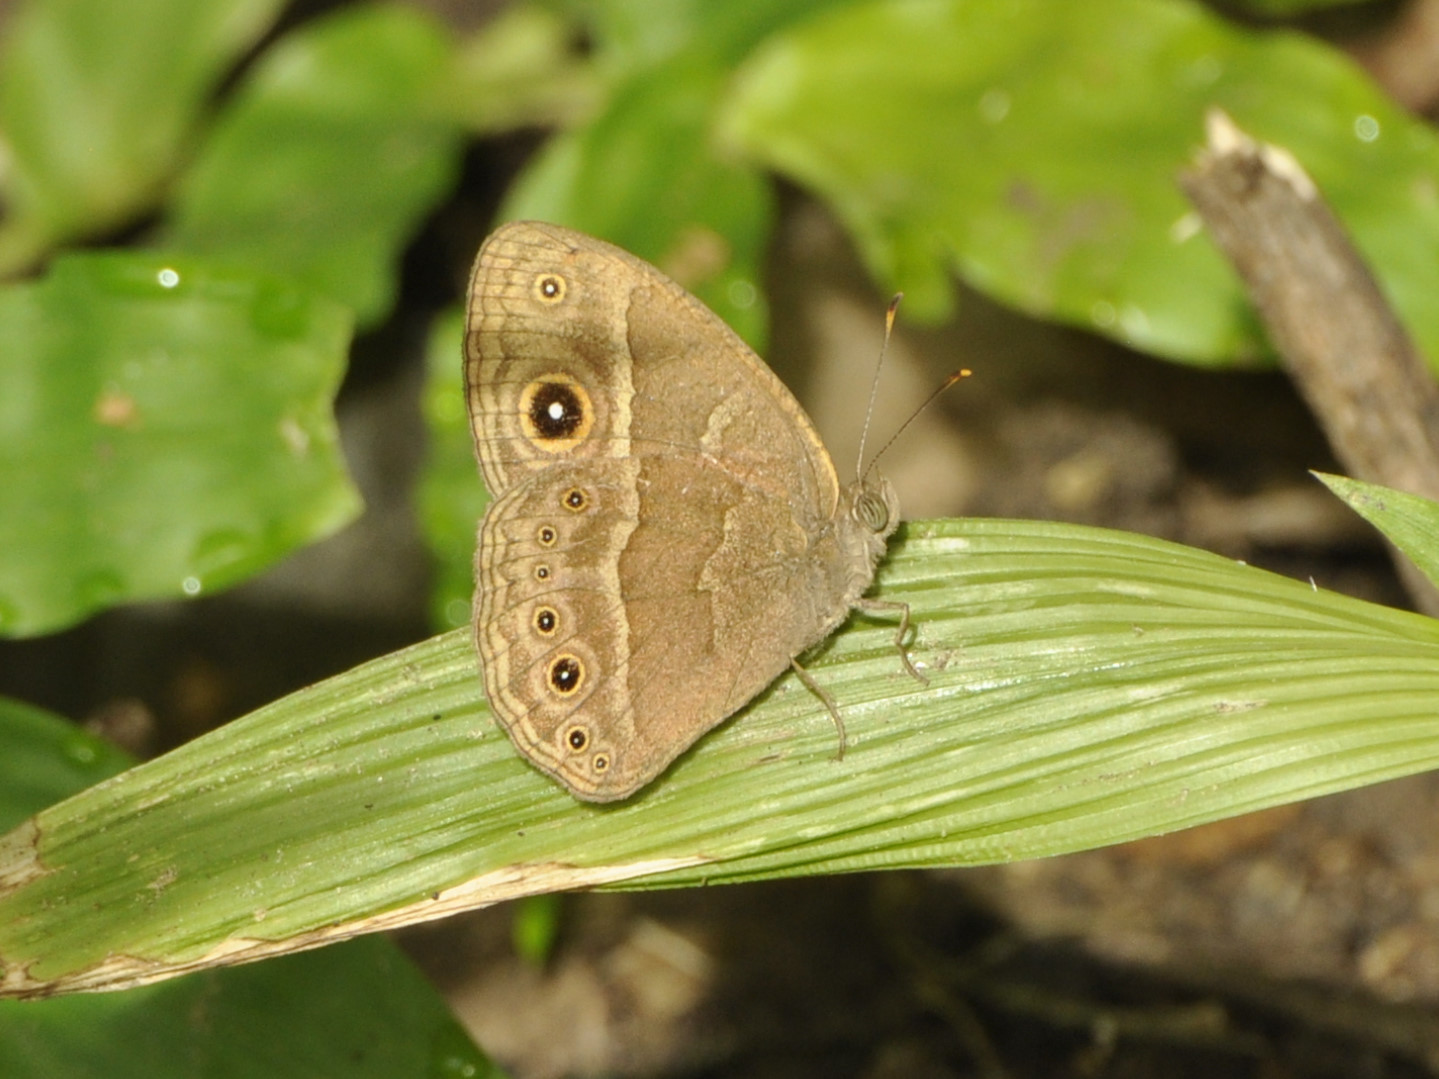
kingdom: Animalia
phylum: Arthropoda
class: Insecta
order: Lepidoptera
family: Nymphalidae
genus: Mycalesis
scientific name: Mycalesis anynana
